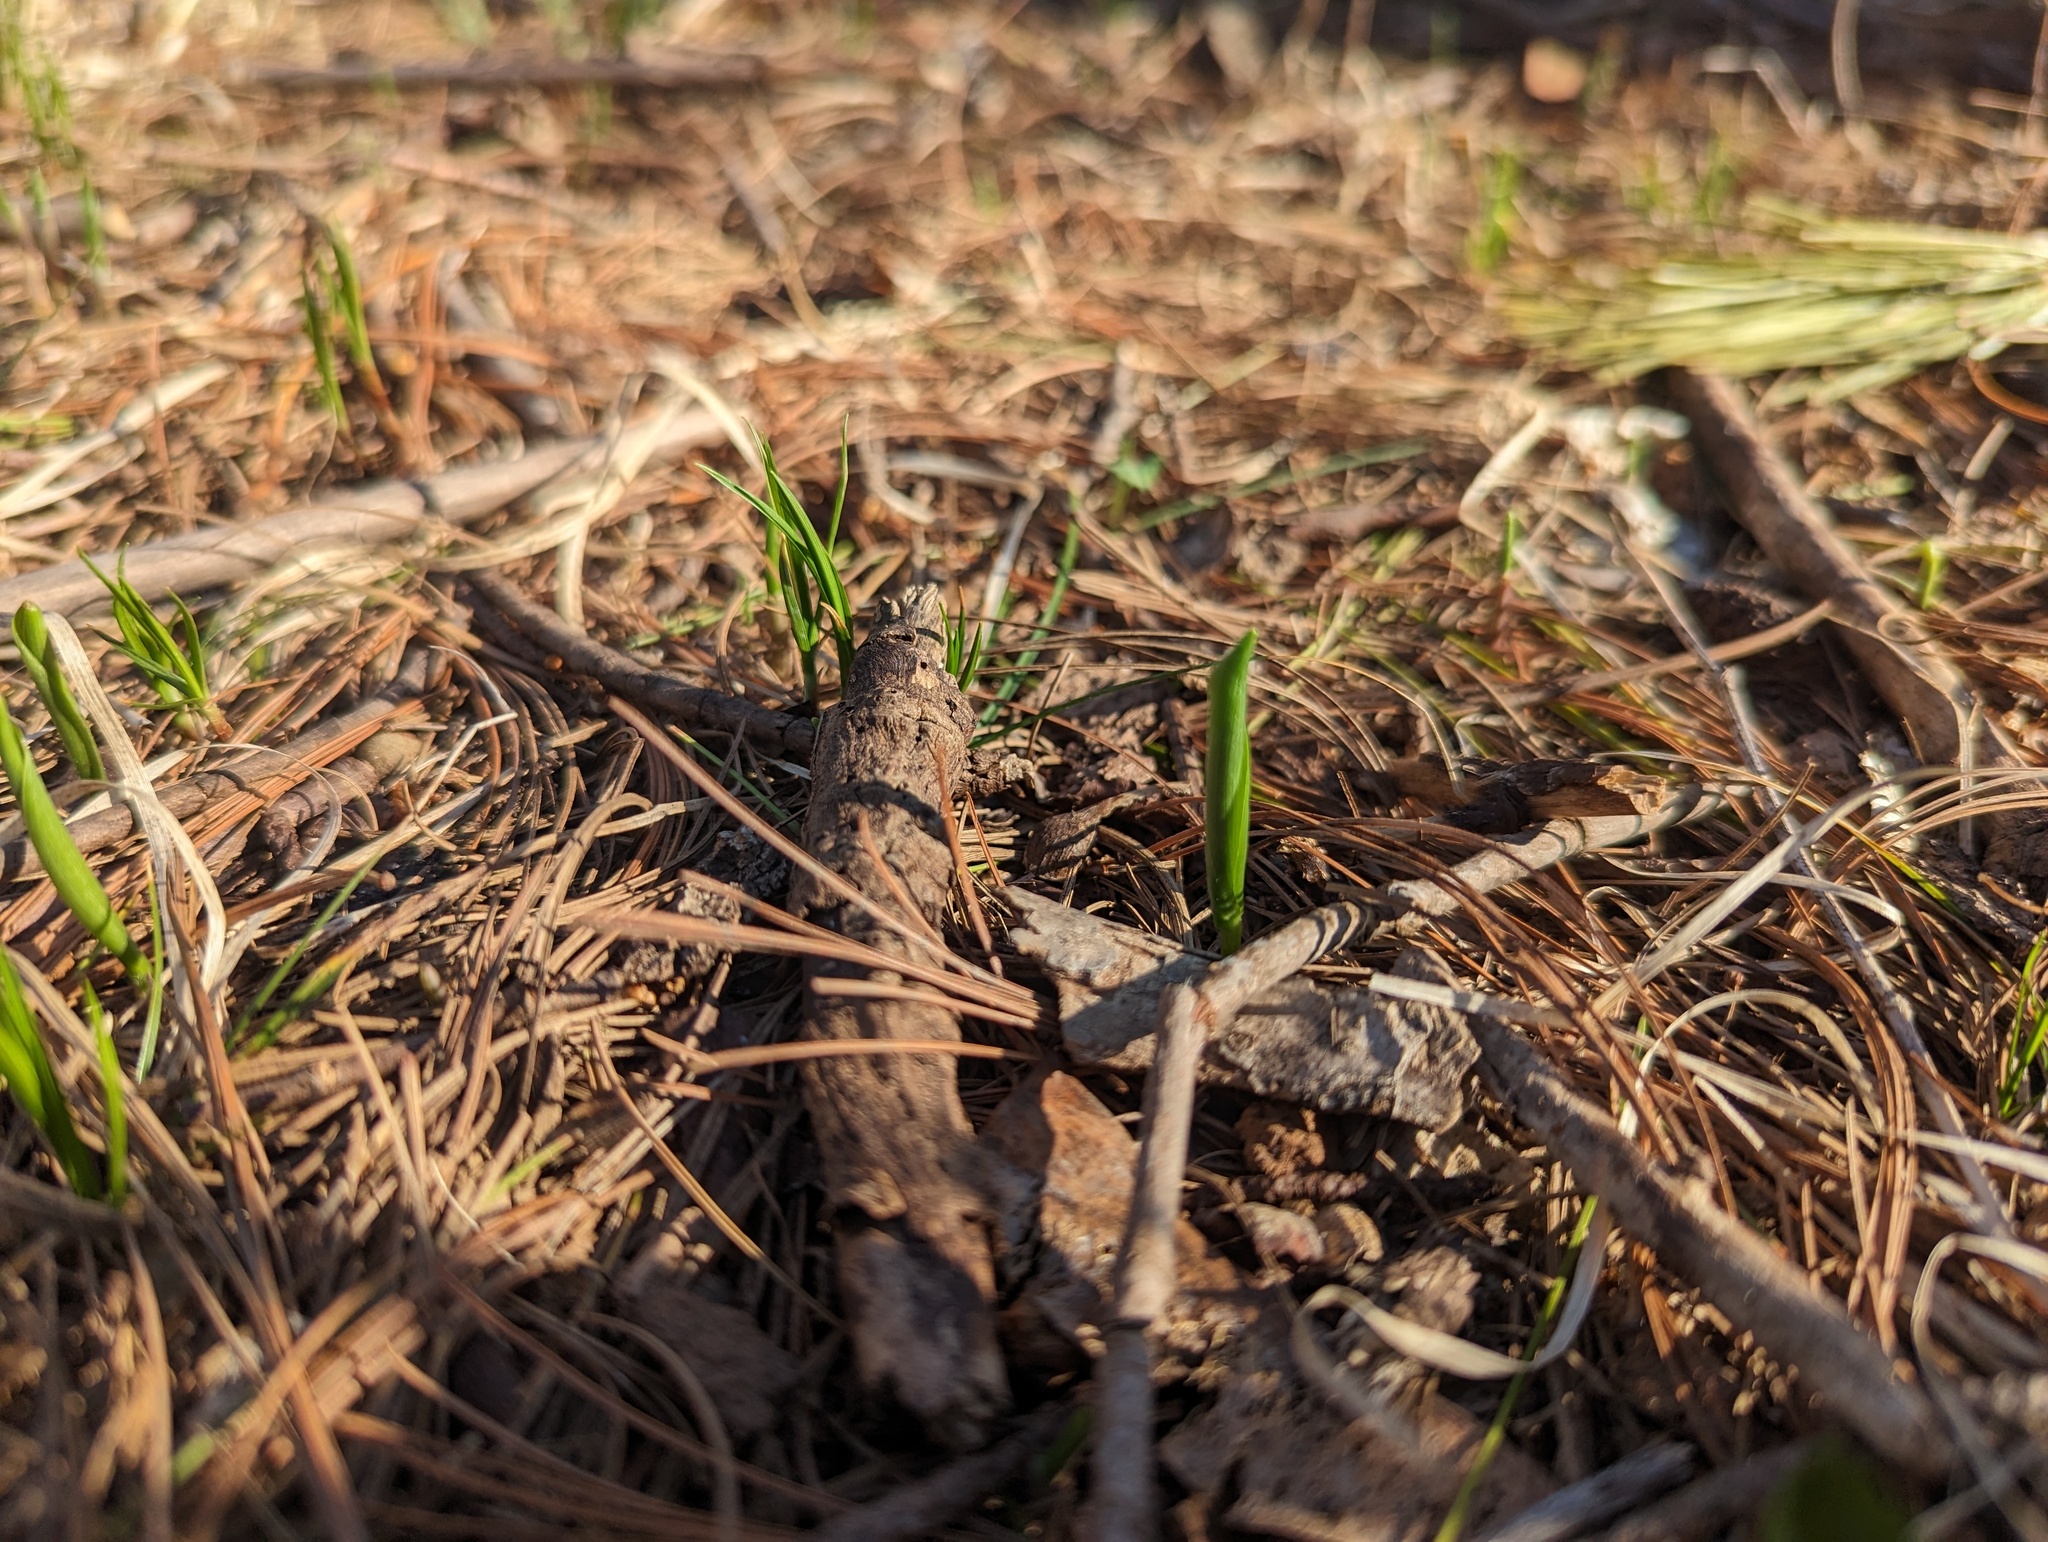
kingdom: Plantae
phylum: Tracheophyta
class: Liliopsida
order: Asparagales
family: Asparagaceae
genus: Maianthemum
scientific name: Maianthemum canadense
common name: False lily-of-the-valley
